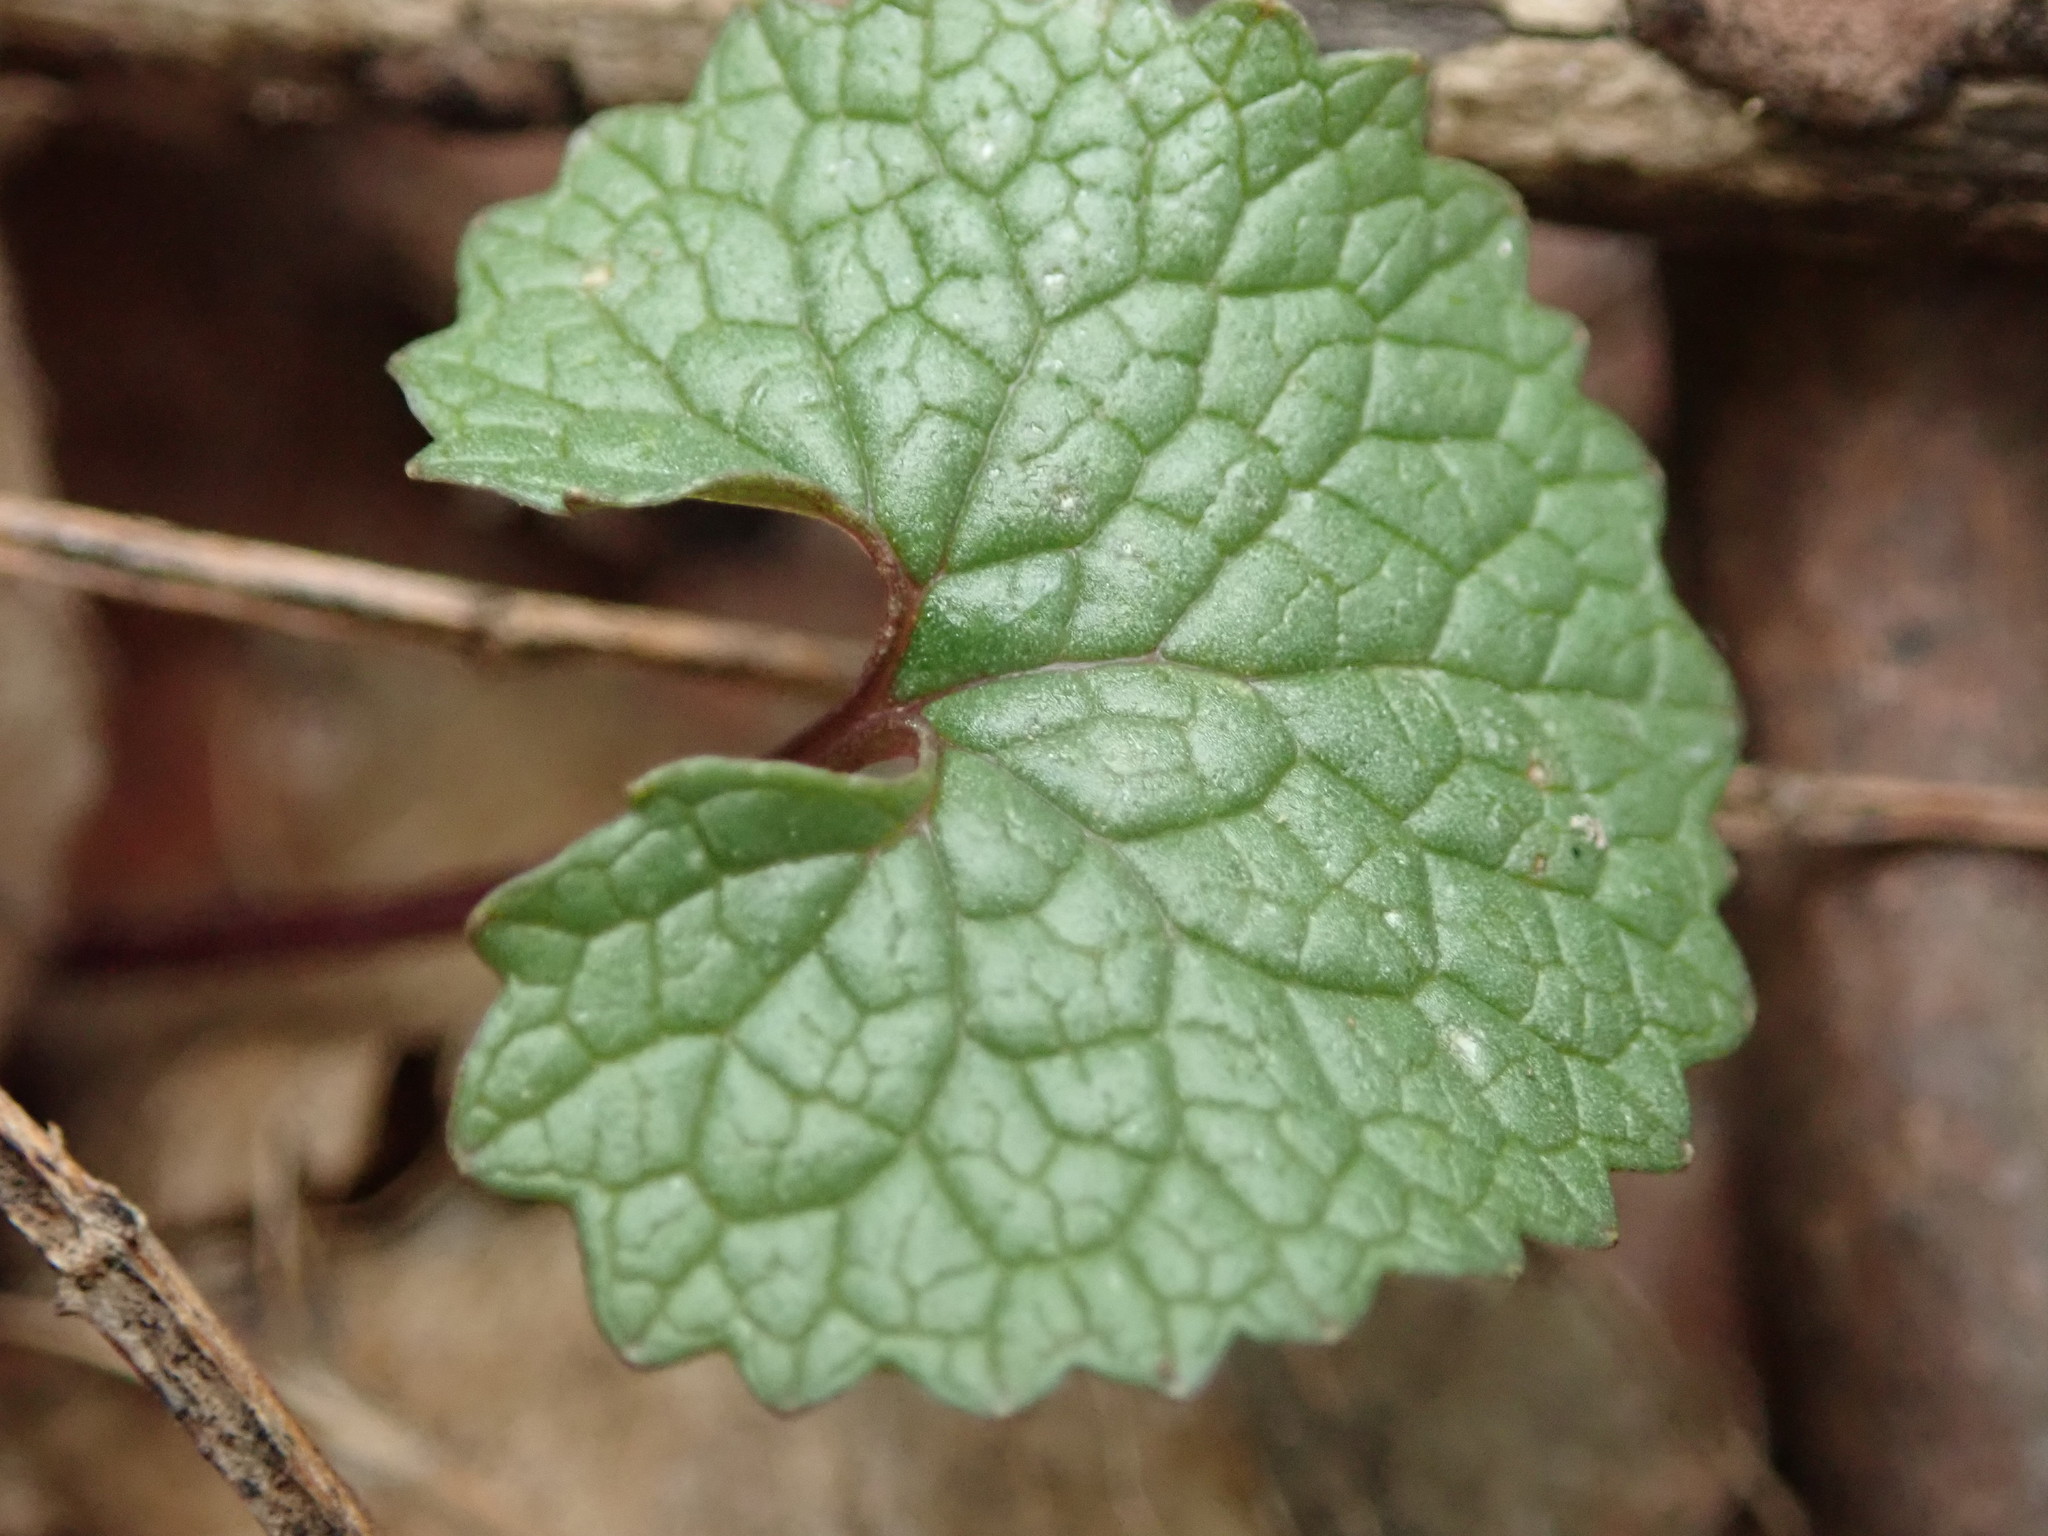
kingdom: Plantae
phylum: Tracheophyta
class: Magnoliopsida
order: Brassicales
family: Brassicaceae
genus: Alliaria
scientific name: Alliaria petiolata
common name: Garlic mustard
